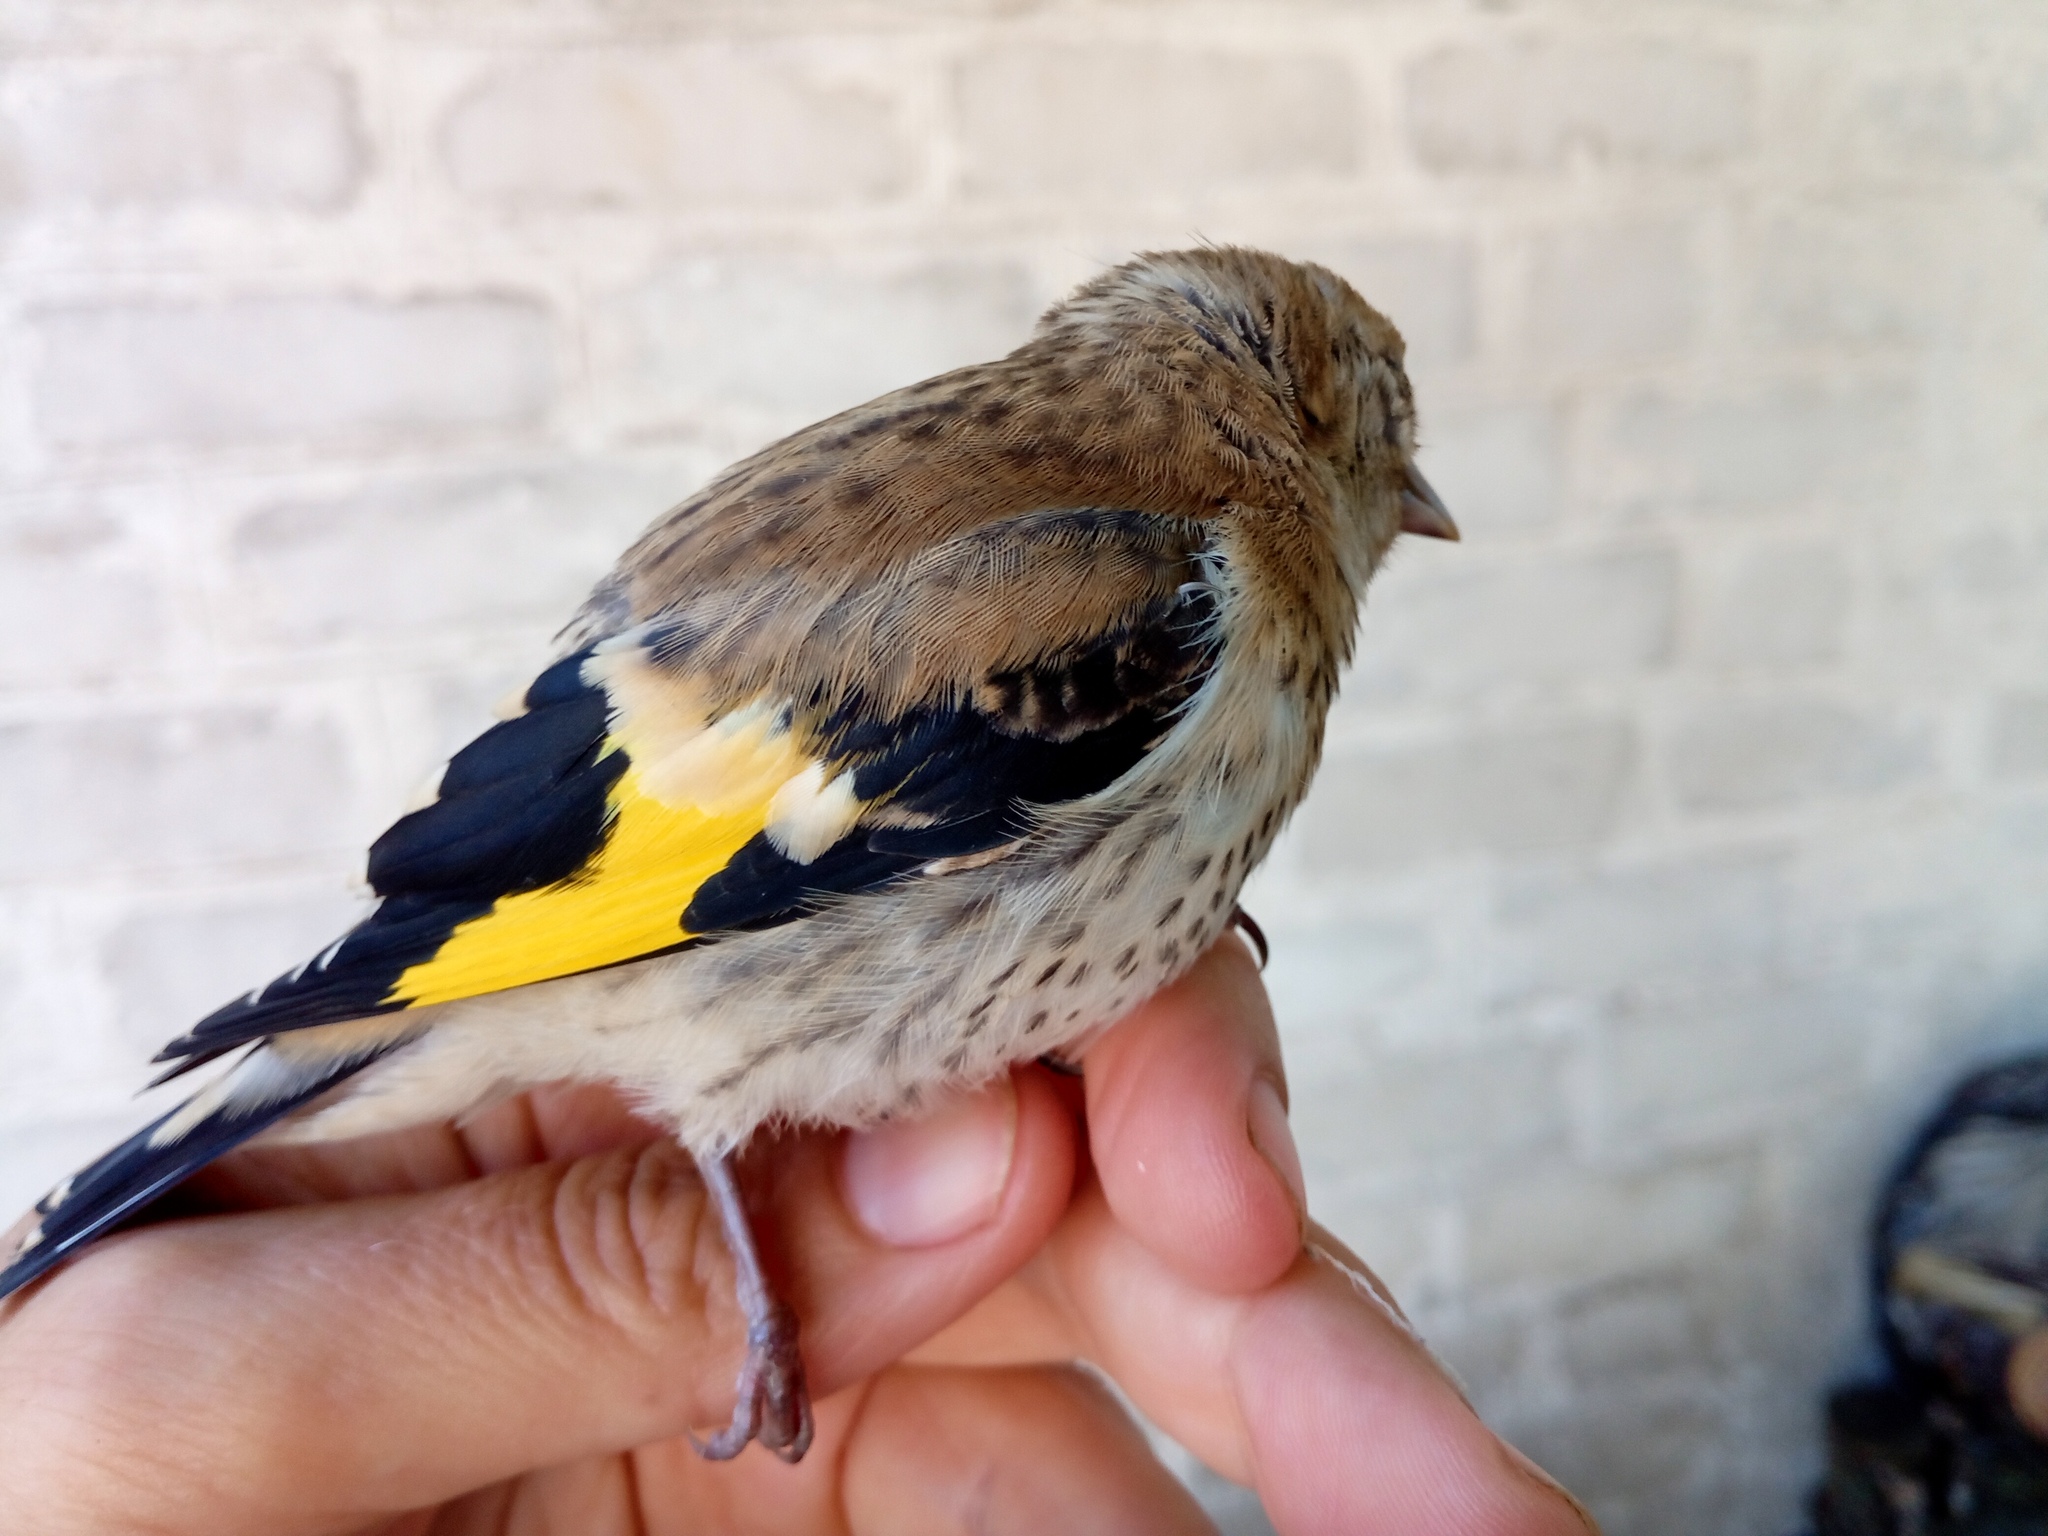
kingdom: Animalia
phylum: Chordata
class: Aves
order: Passeriformes
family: Fringillidae
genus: Carduelis
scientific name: Carduelis carduelis
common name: European goldfinch
